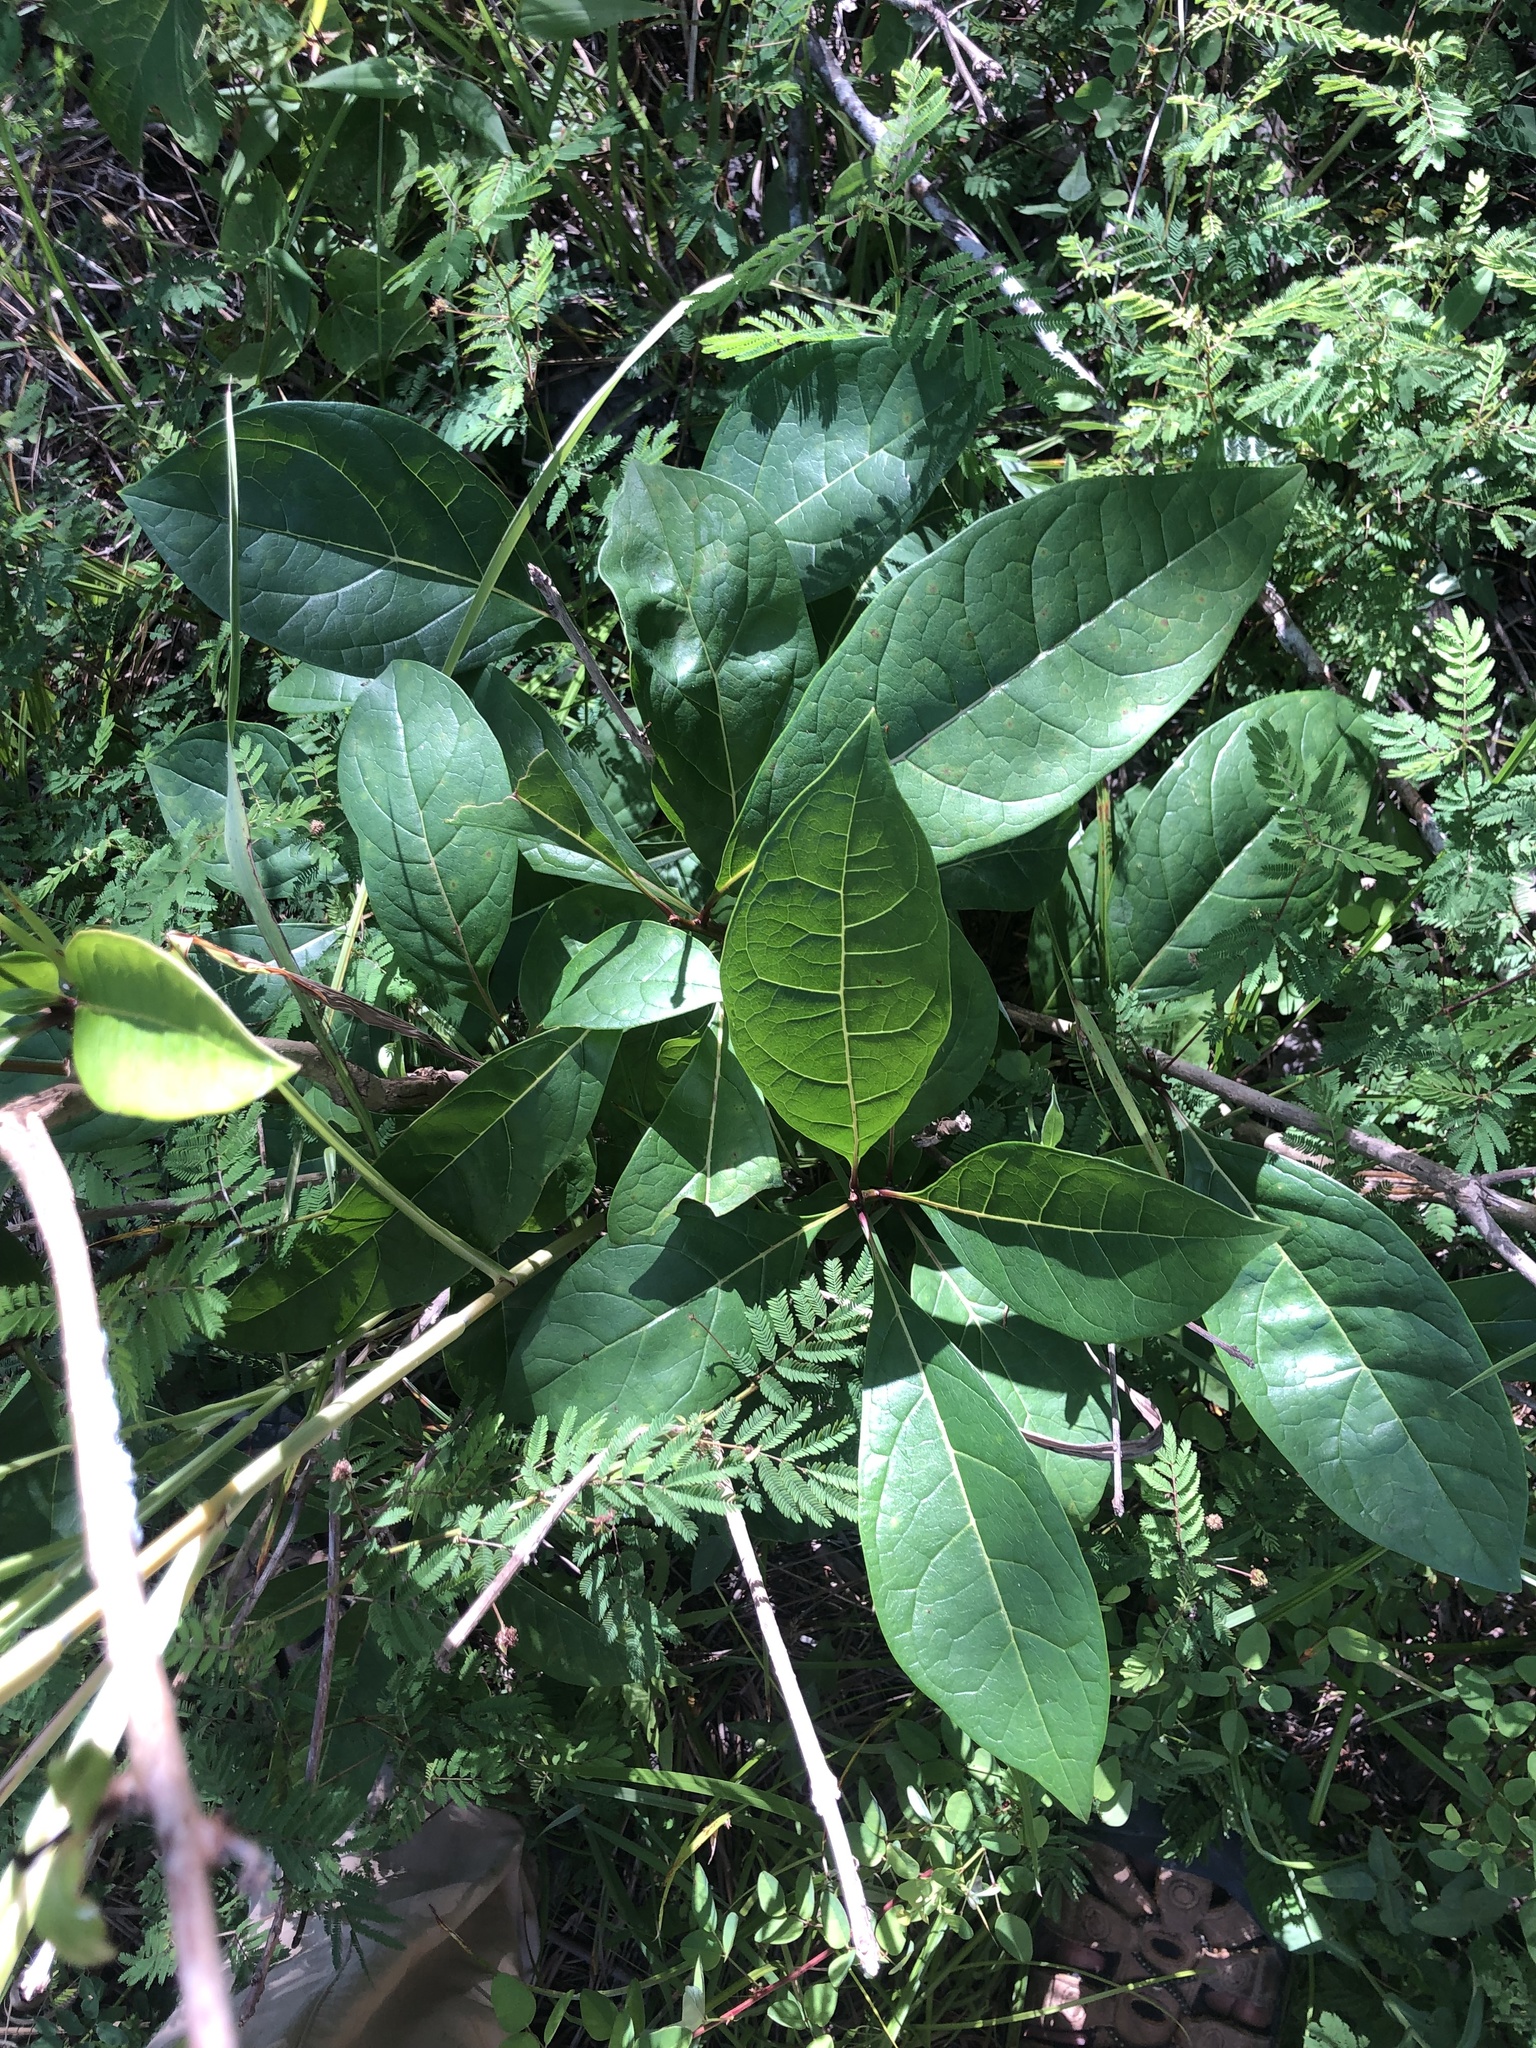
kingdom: Plantae
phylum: Tracheophyta
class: Magnoliopsida
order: Lamiales
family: Oleaceae
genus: Chionanthus
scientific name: Chionanthus virginicus
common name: American fringetree
